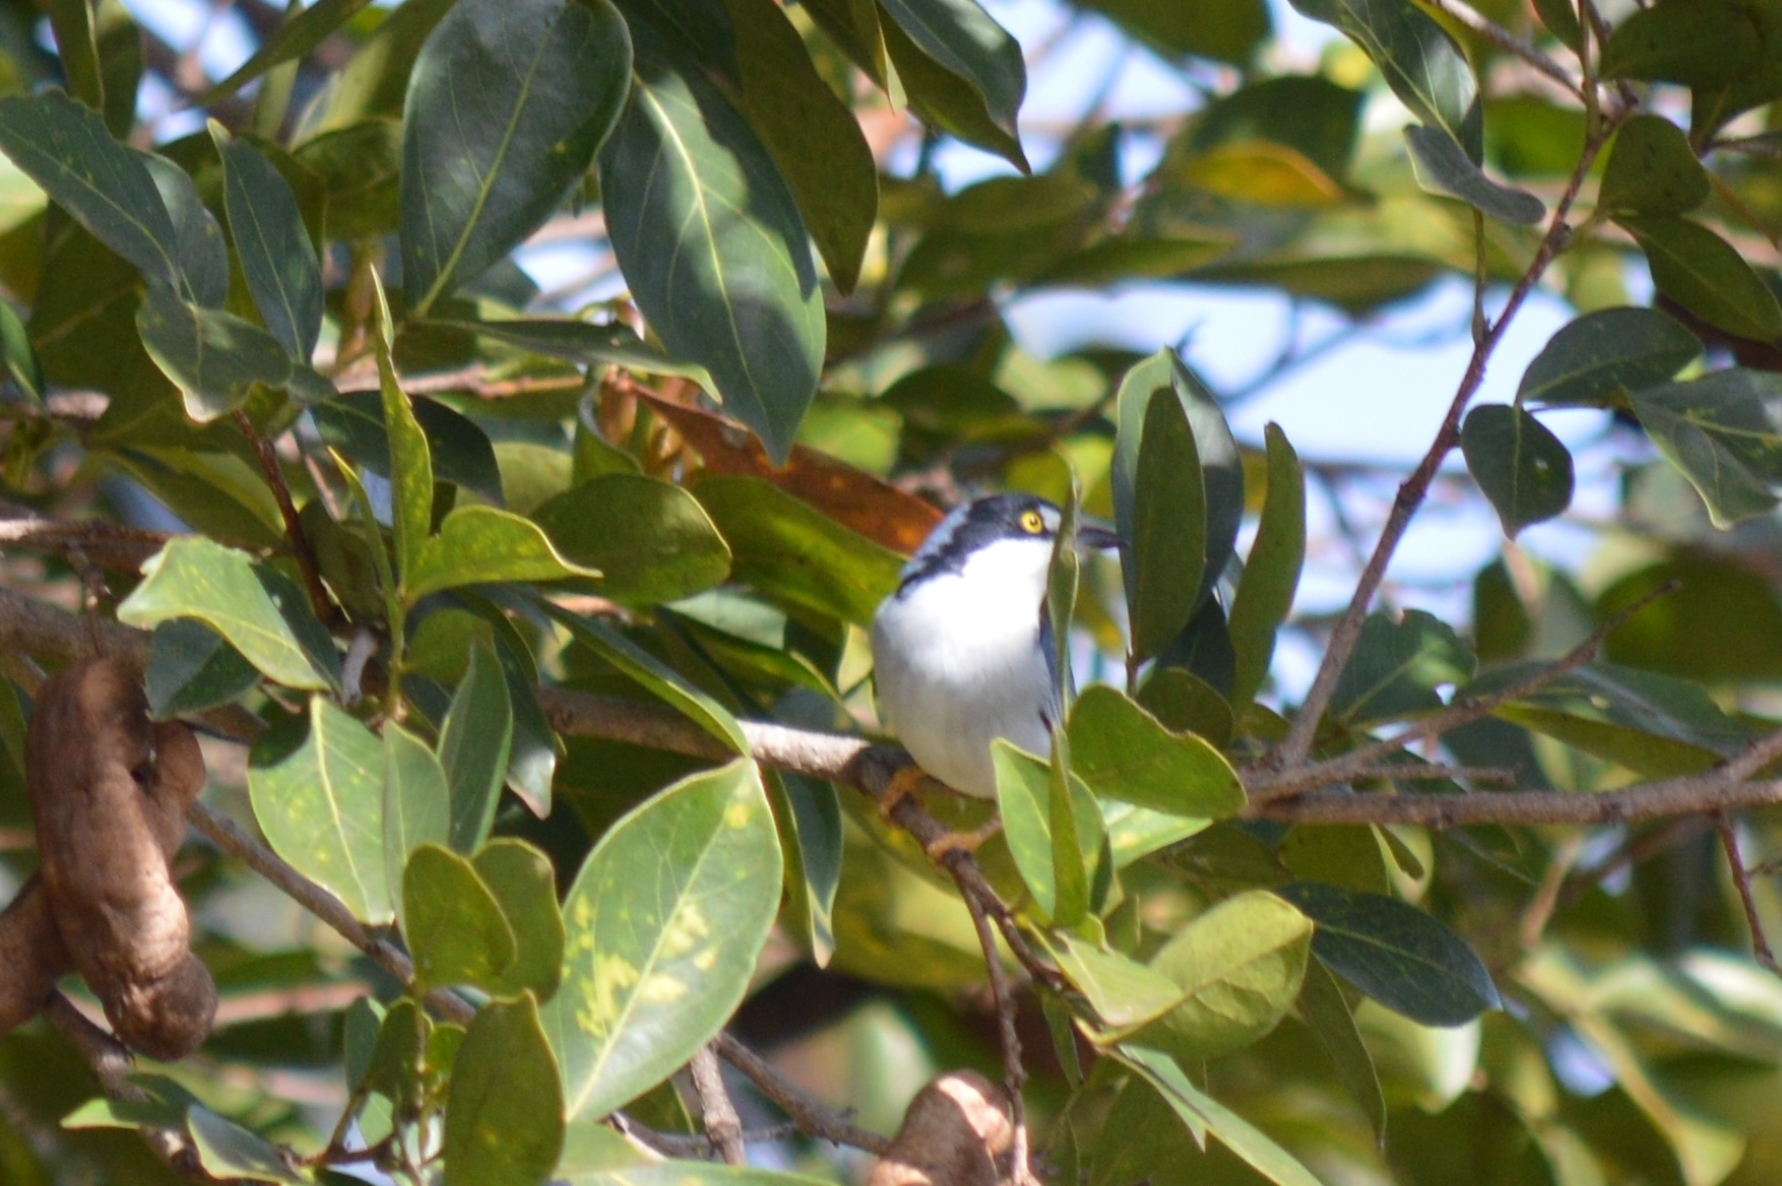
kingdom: Animalia
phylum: Chordata
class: Aves
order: Passeriformes
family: Thraupidae
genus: Nemosia
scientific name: Nemosia pileata
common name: Hooded tanager
